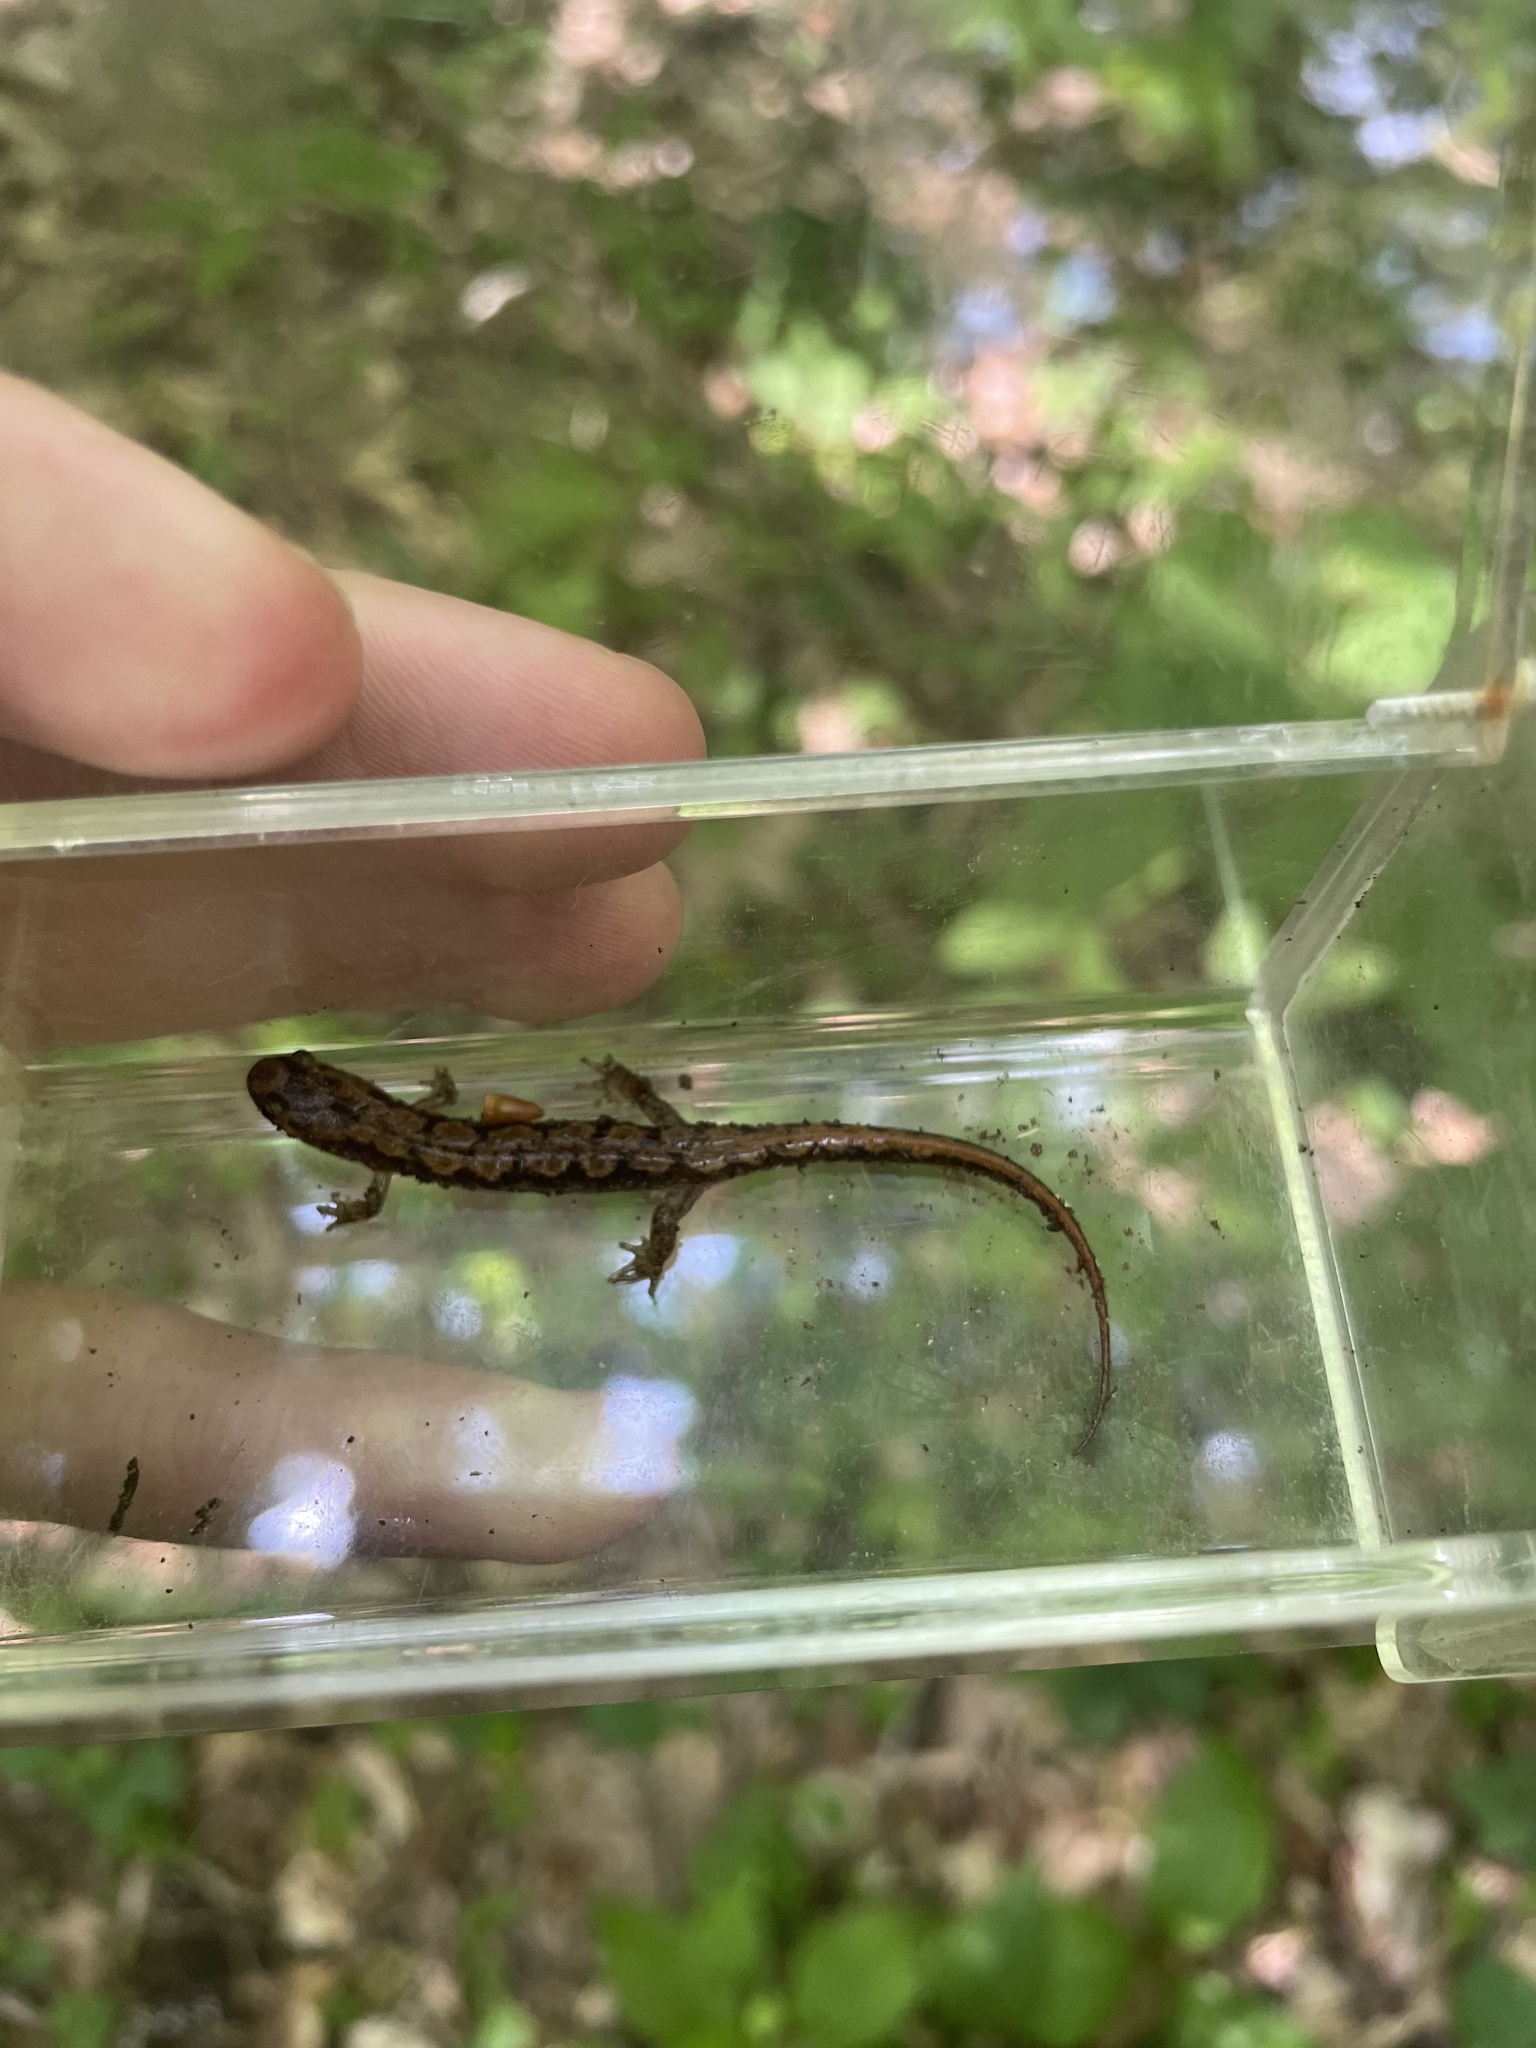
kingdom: Animalia
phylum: Chordata
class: Amphibia
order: Caudata
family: Plethodontidae
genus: Desmognathus
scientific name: Desmognathus ocoee
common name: Ocoee salamander
